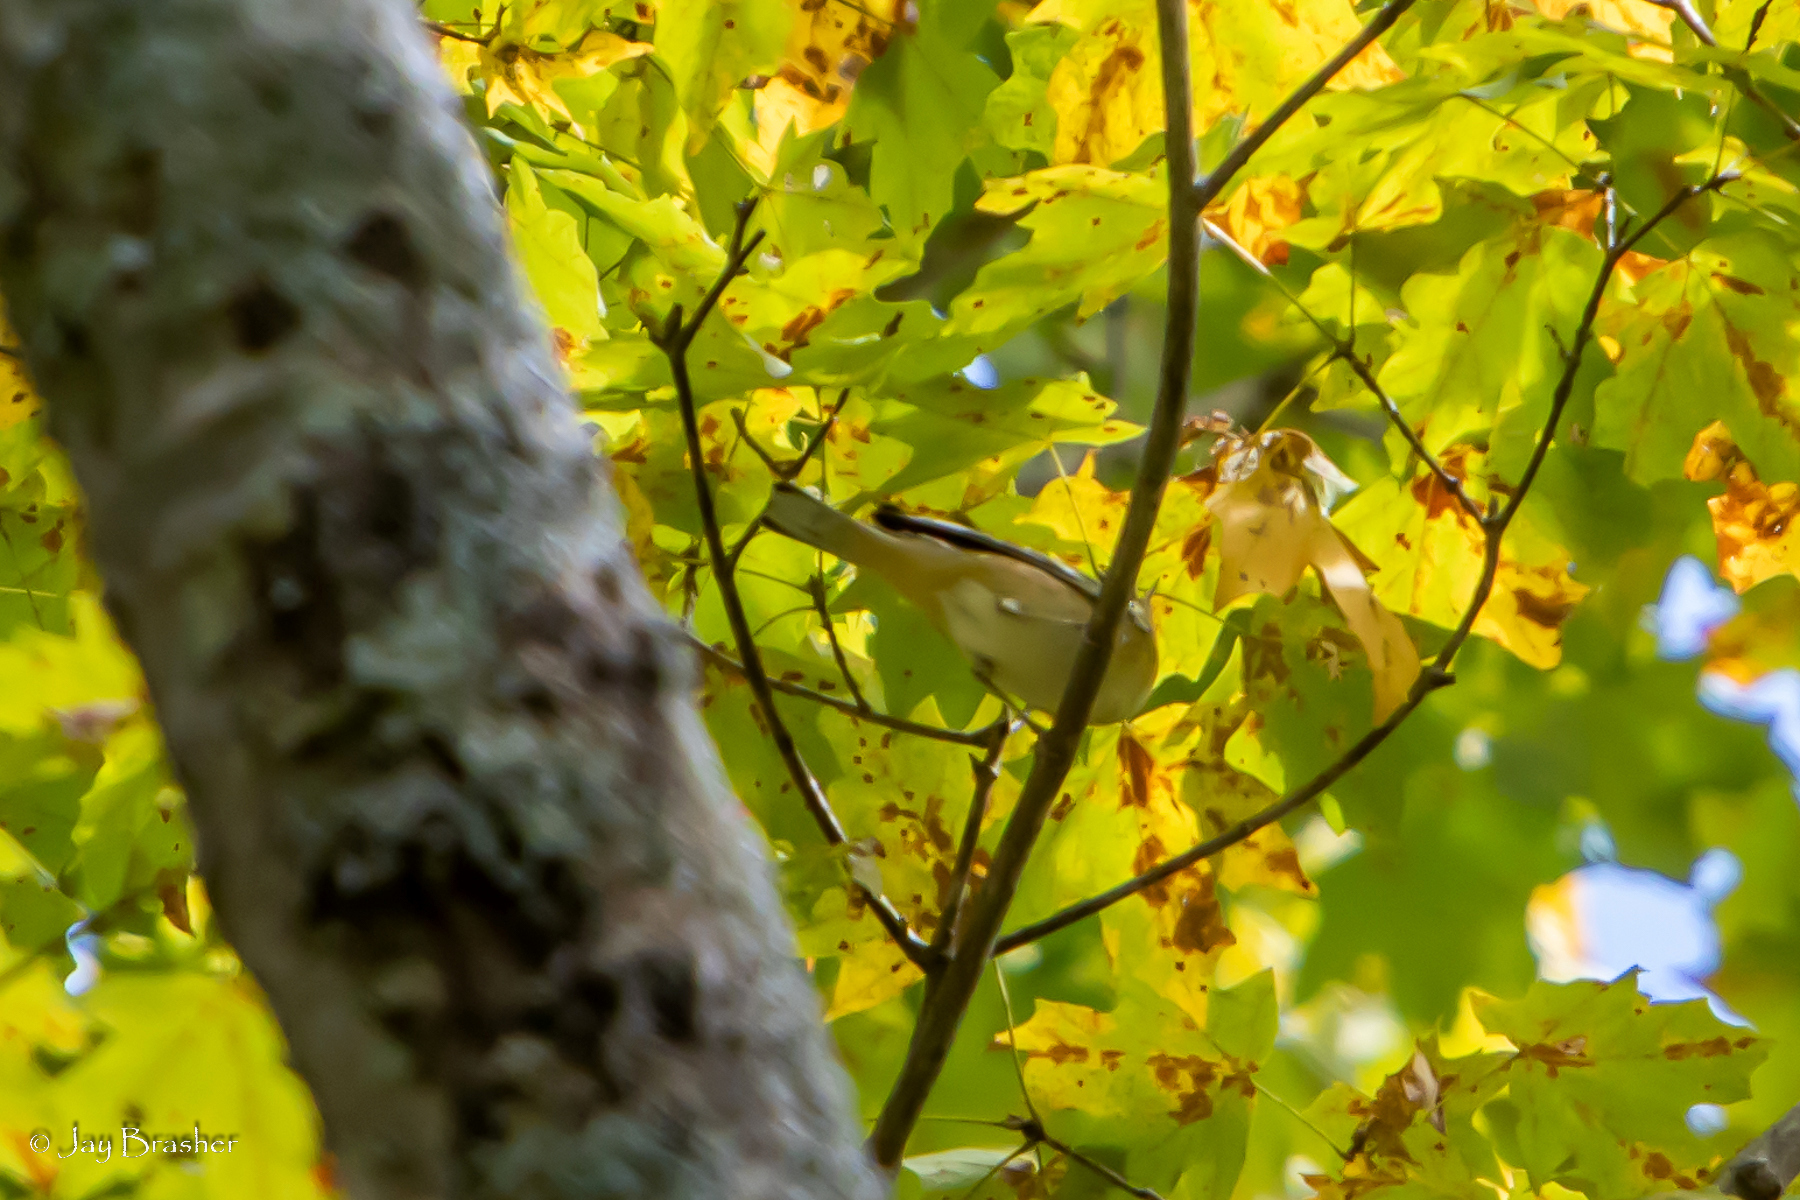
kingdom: Animalia
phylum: Chordata
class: Aves
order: Passeriformes
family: Icteridae
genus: Icterus
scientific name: Icterus spurius
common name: Orchard oriole
